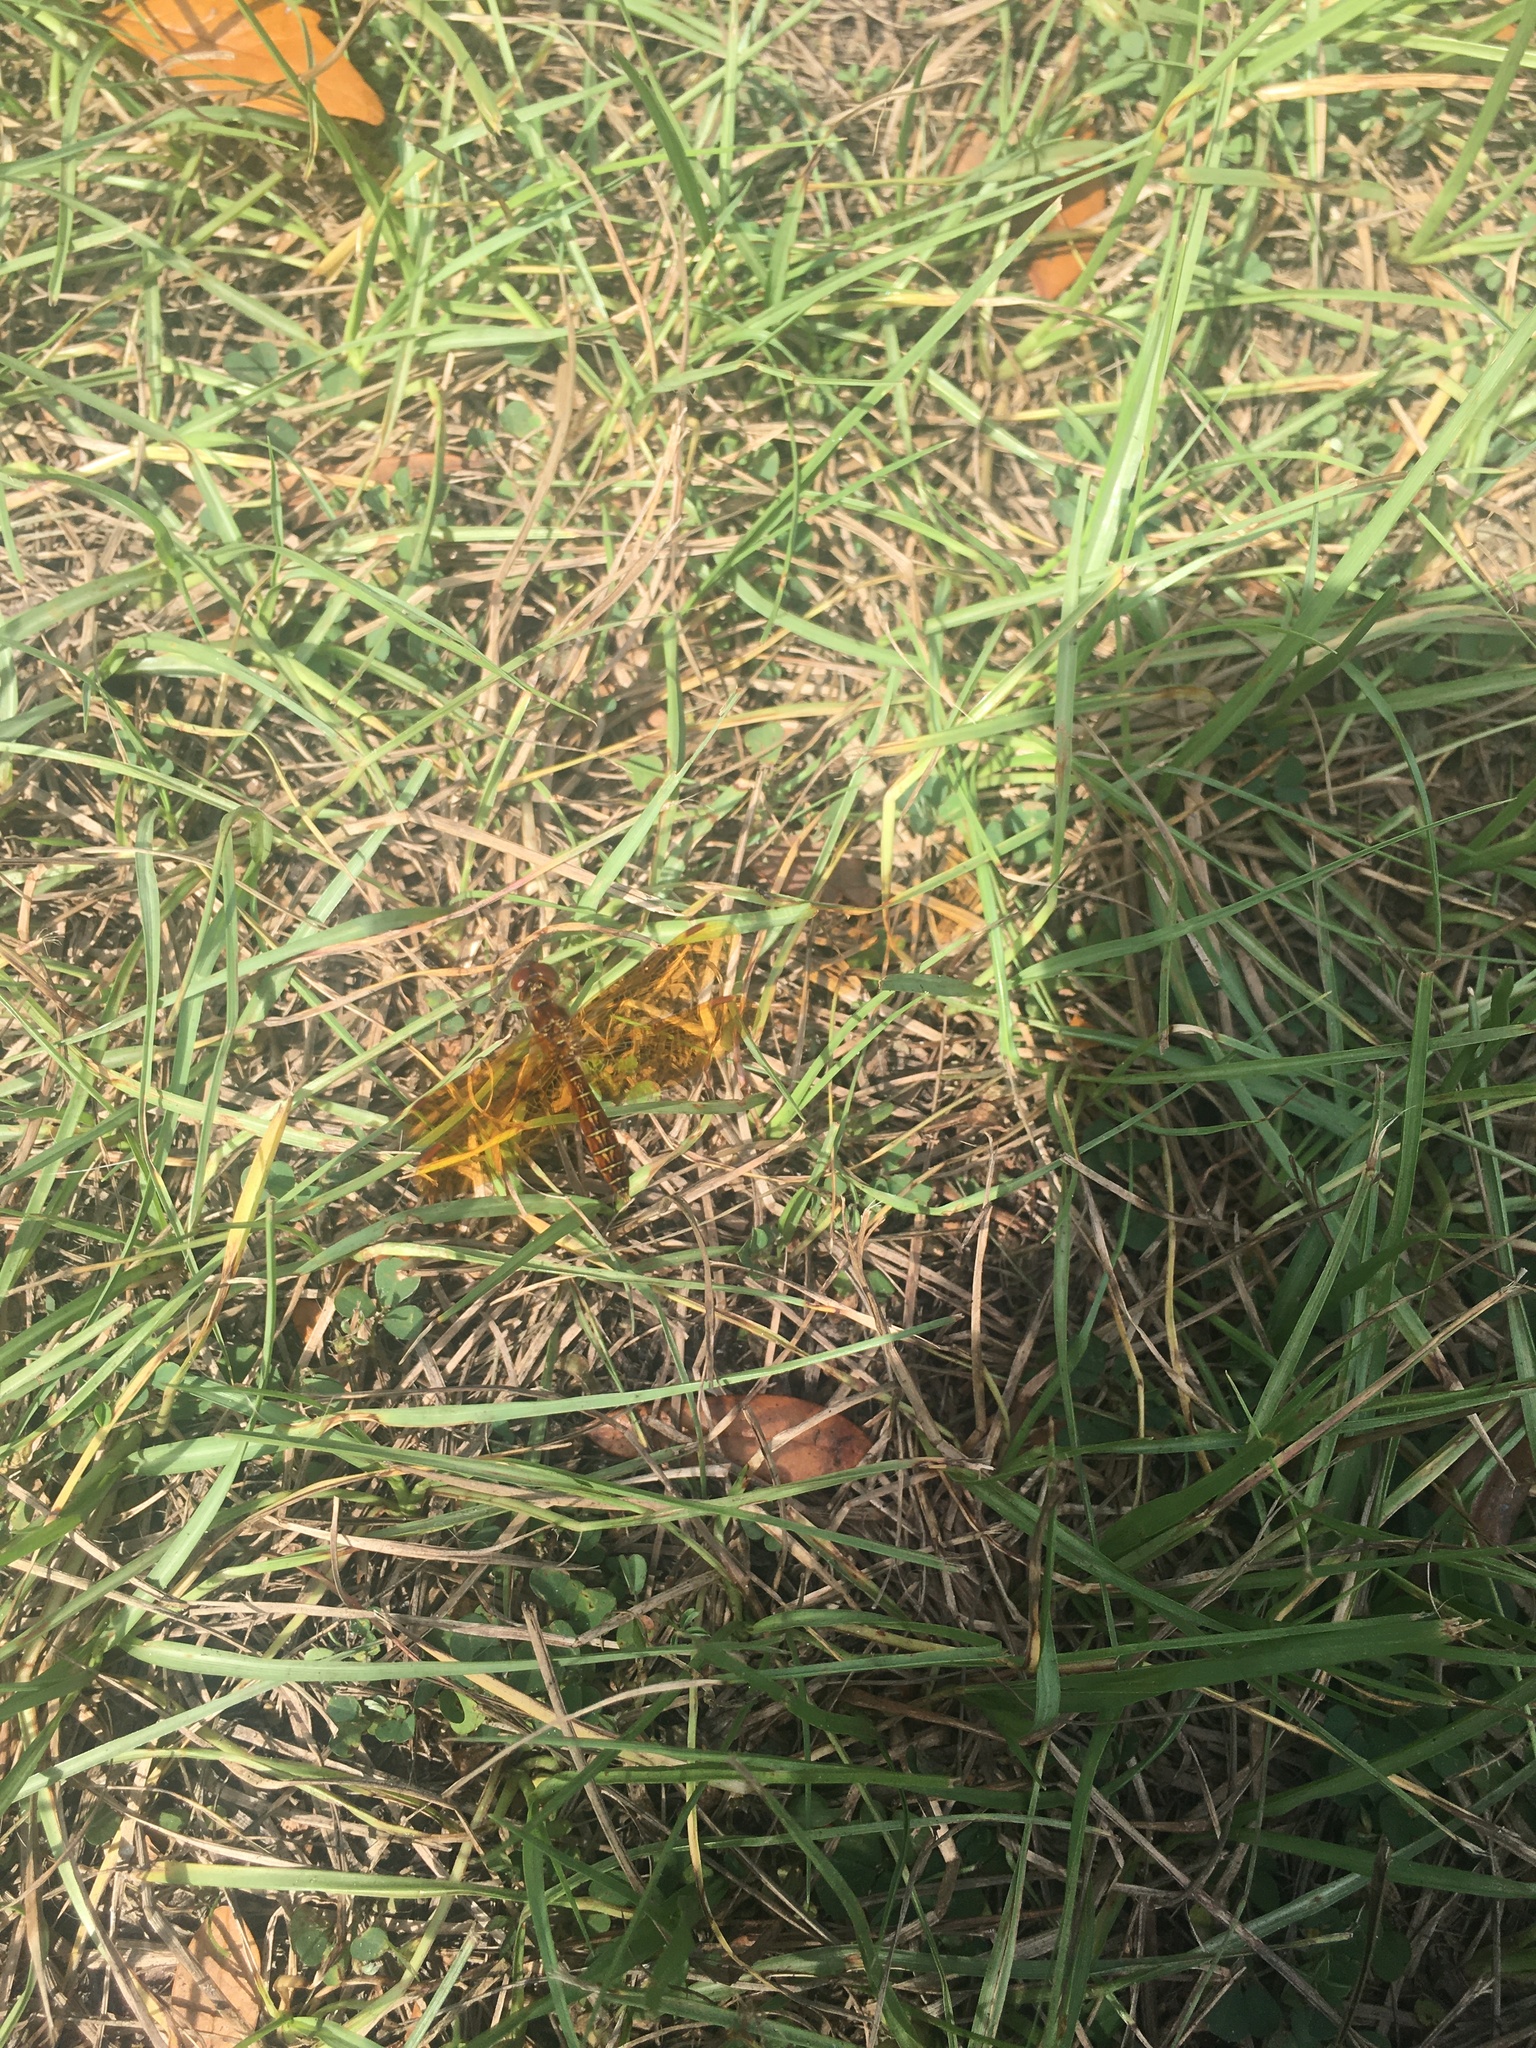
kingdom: Animalia
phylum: Arthropoda
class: Insecta
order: Odonata
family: Libellulidae
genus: Perithemis
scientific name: Perithemis tenera
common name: Eastern amberwing
